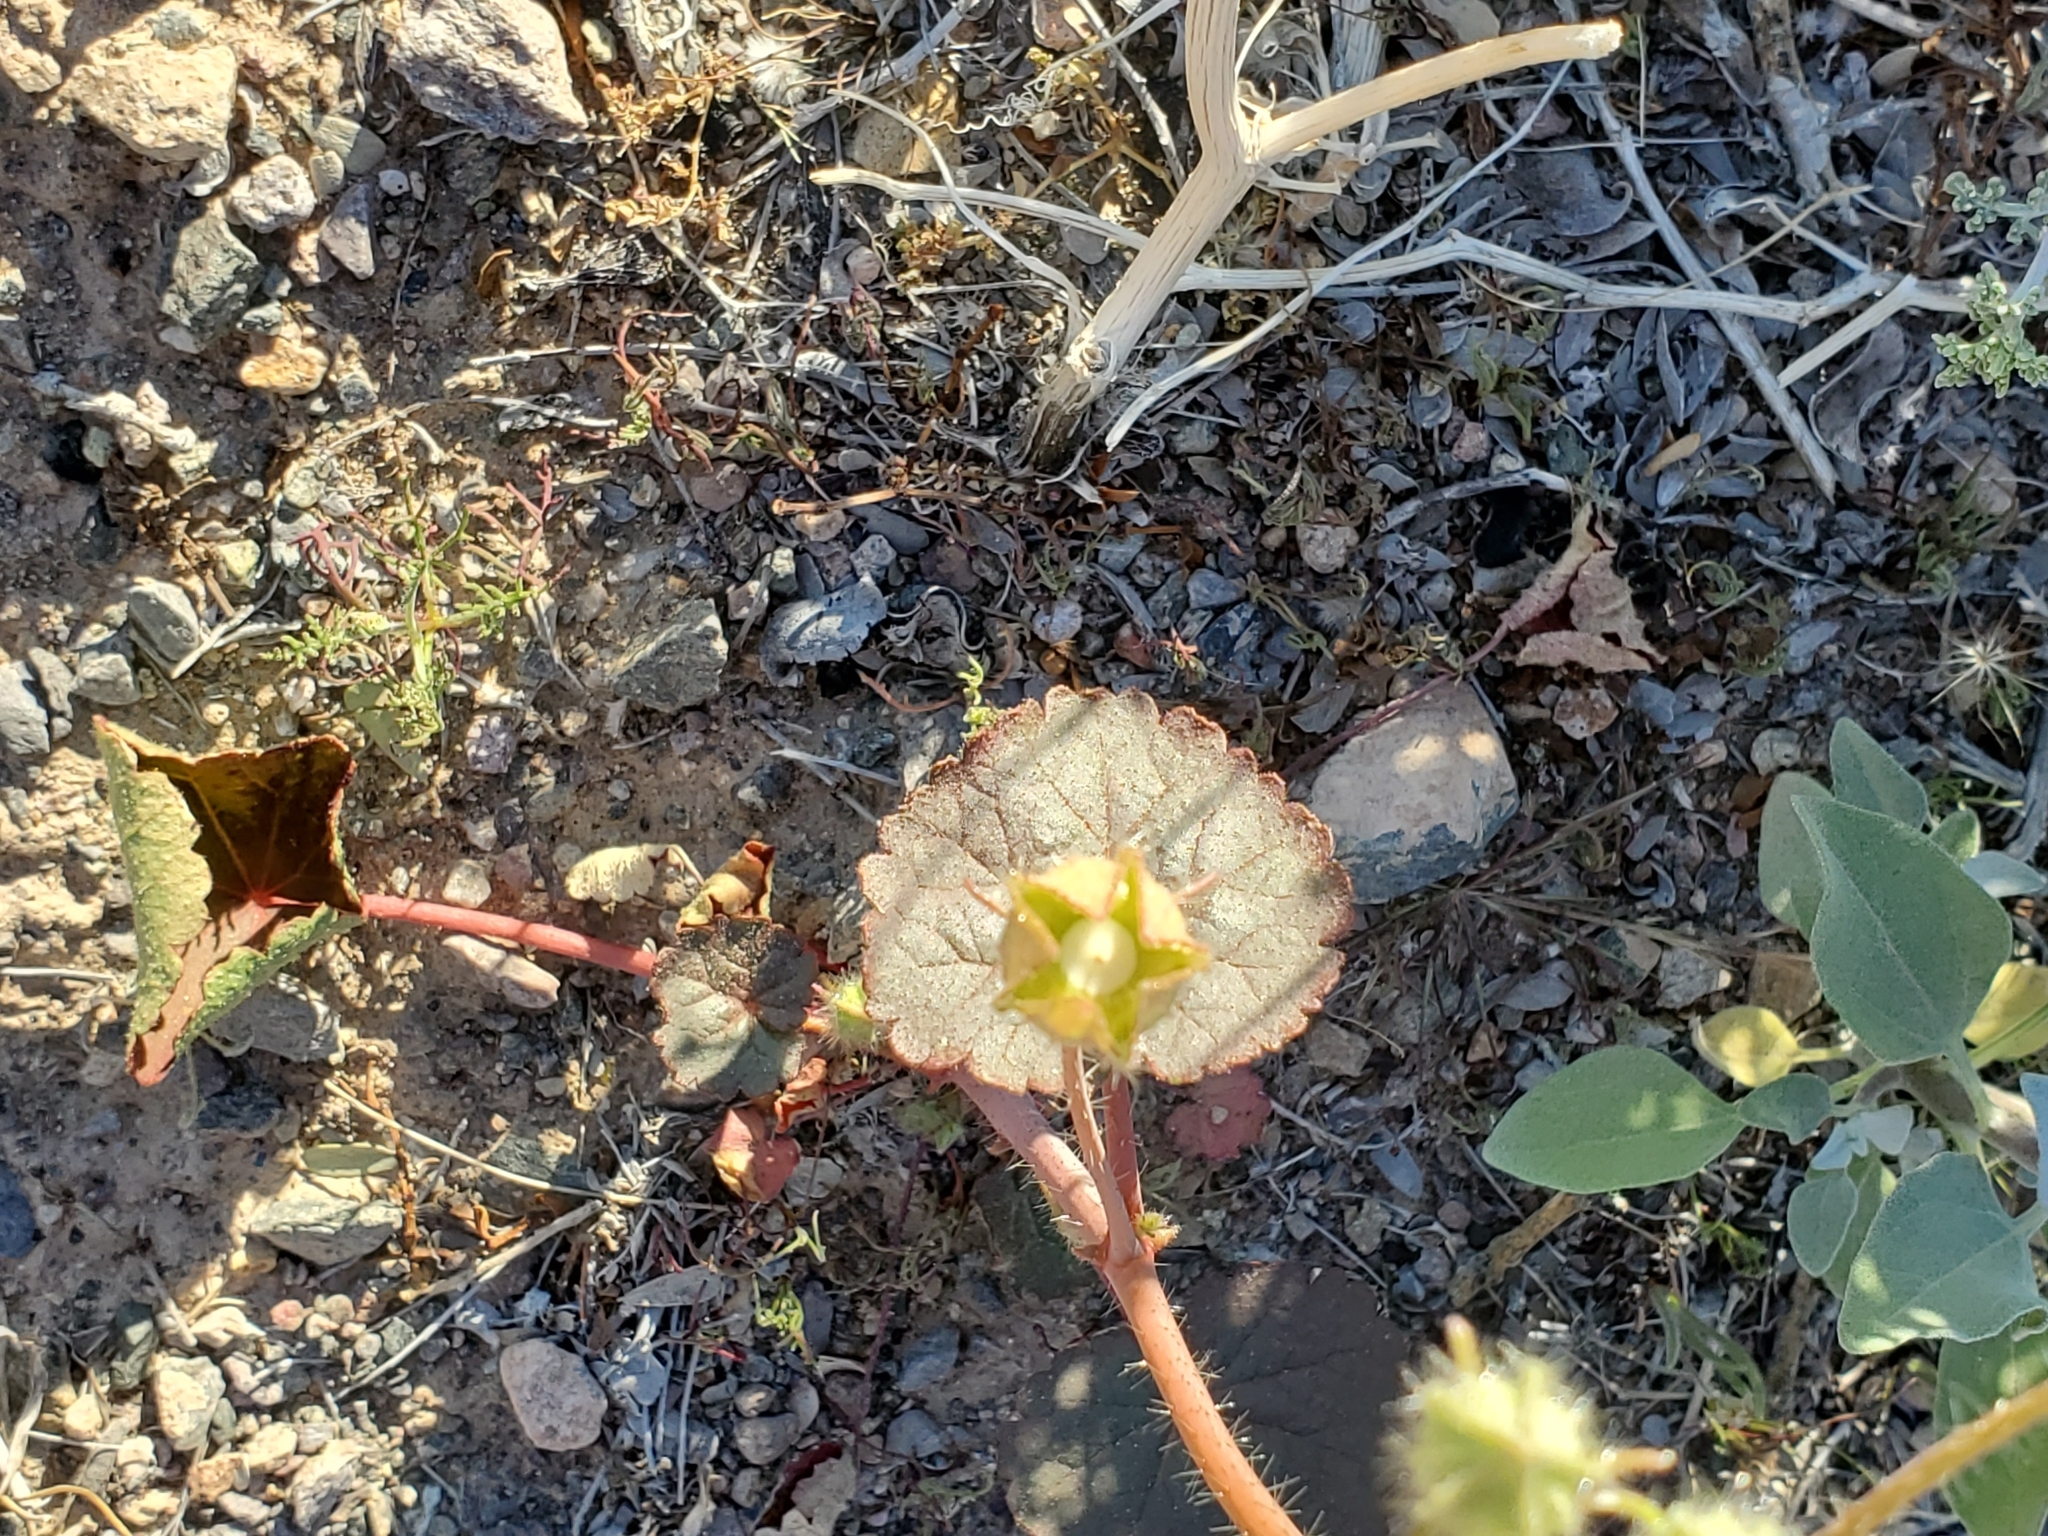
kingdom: Plantae
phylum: Tracheophyta
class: Magnoliopsida
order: Malvales
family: Malvaceae
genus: Eremalche
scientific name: Eremalche rotundifolia
